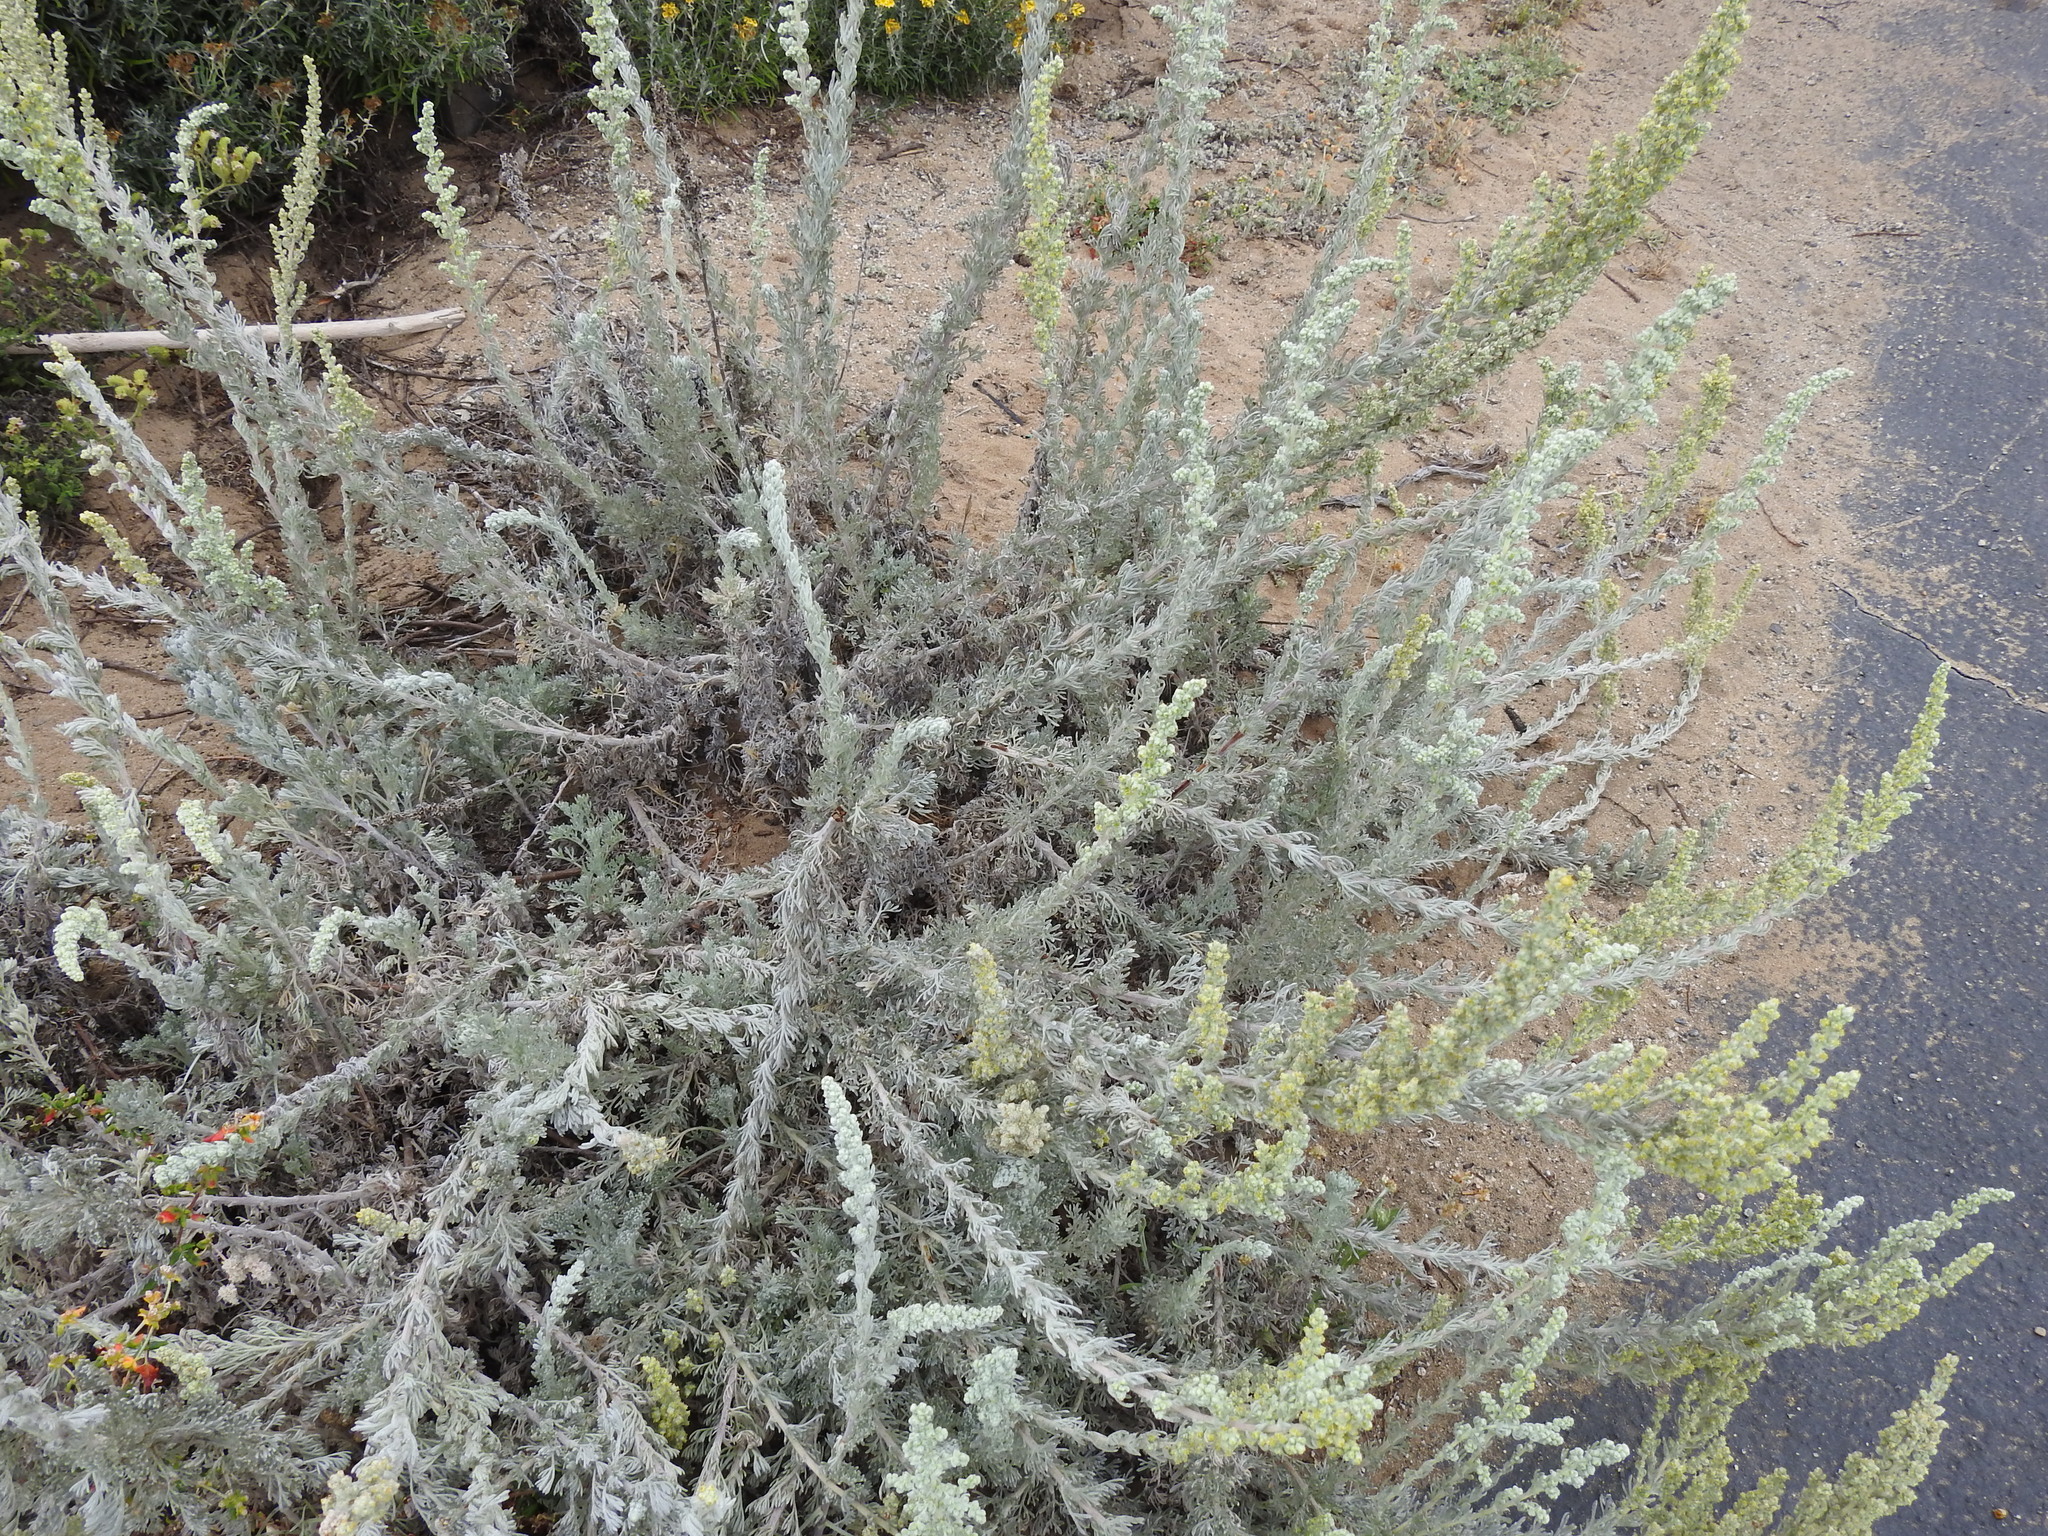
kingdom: Plantae
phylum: Tracheophyta
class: Magnoliopsida
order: Asterales
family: Asteraceae
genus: Artemisia
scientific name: Artemisia pycnocephala
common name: Coastal sagewort
